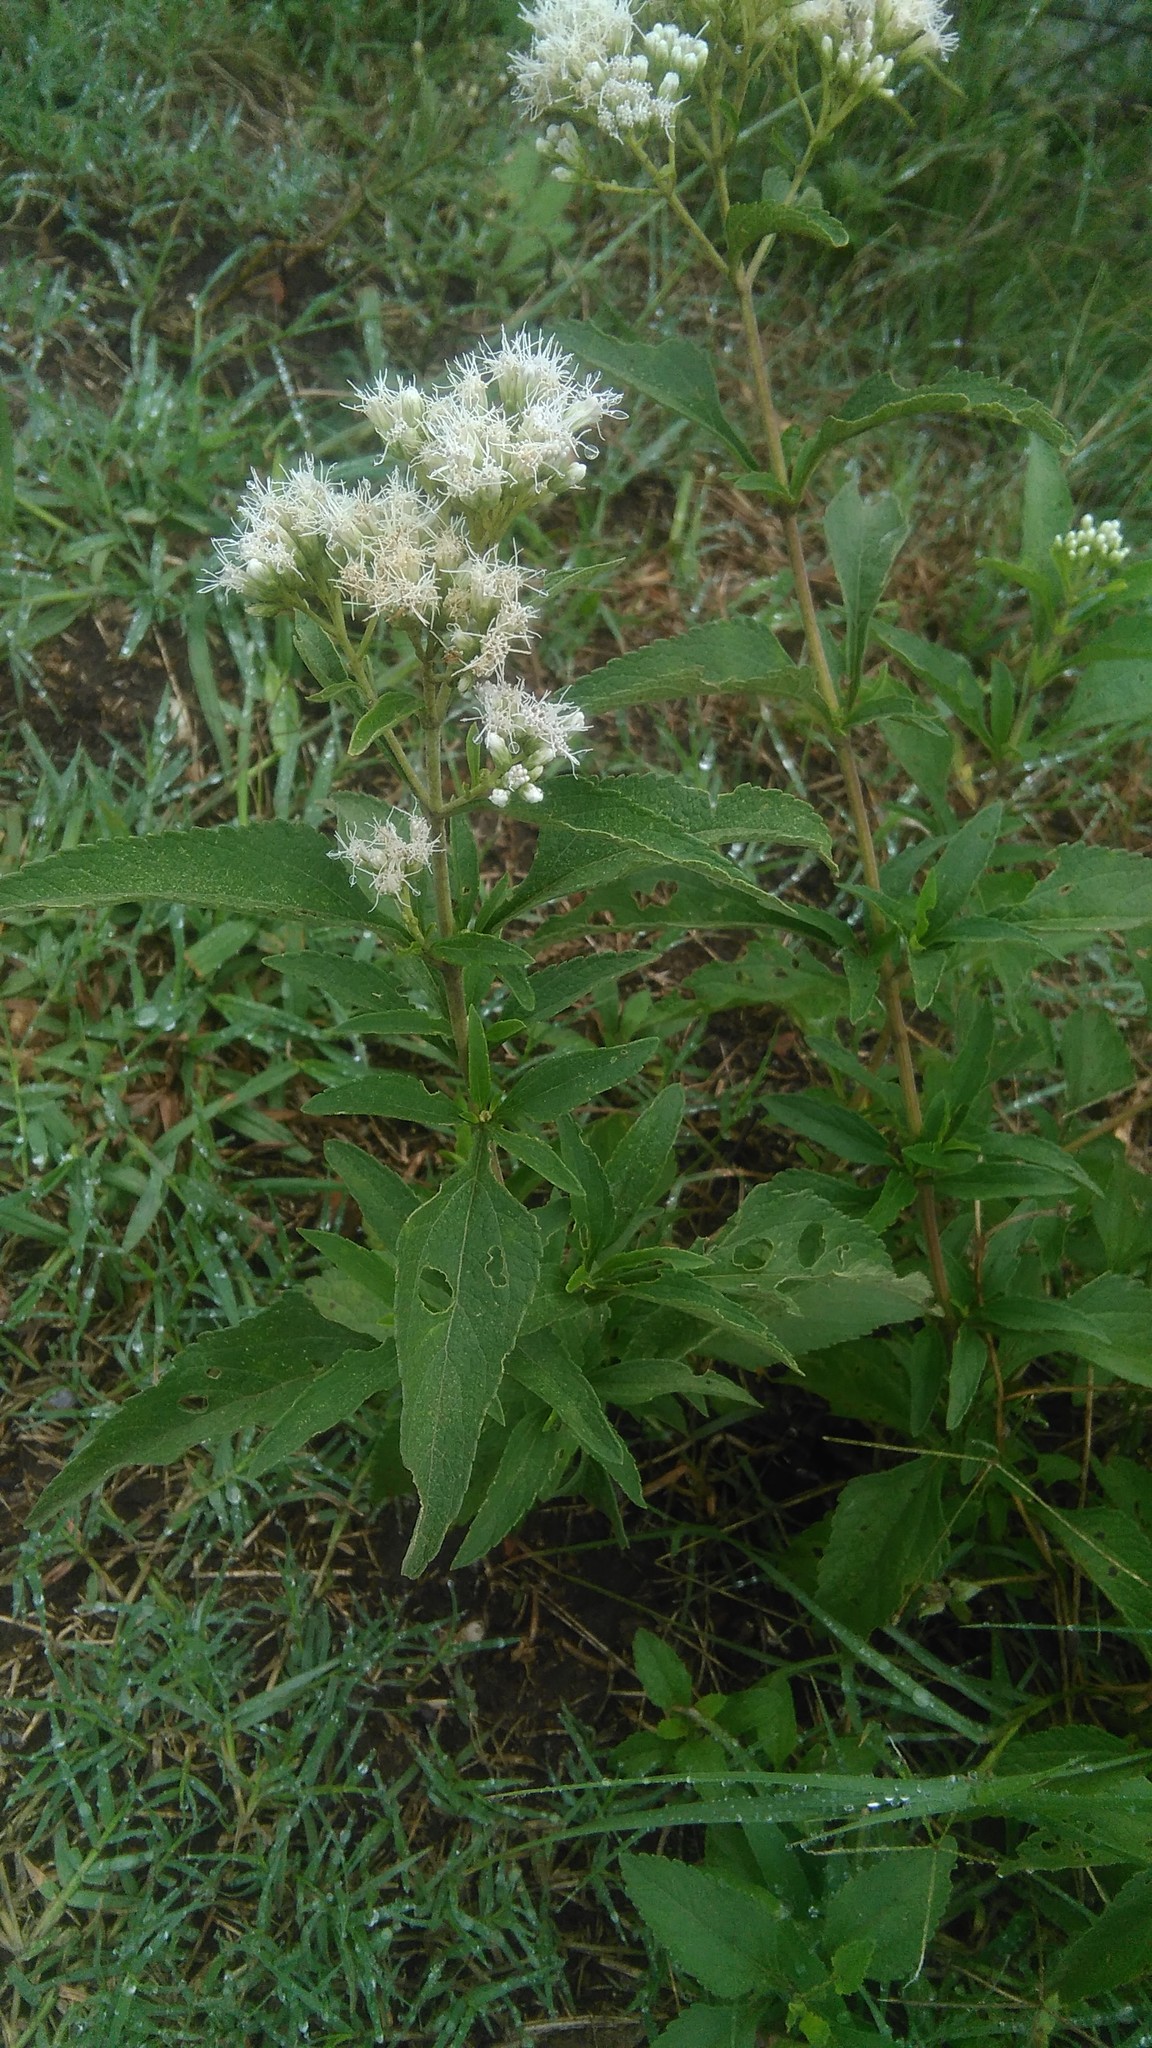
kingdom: Plantae
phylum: Tracheophyta
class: Magnoliopsida
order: Asterales
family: Asteraceae
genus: Austroeupatorium
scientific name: Austroeupatorium inulifolium
